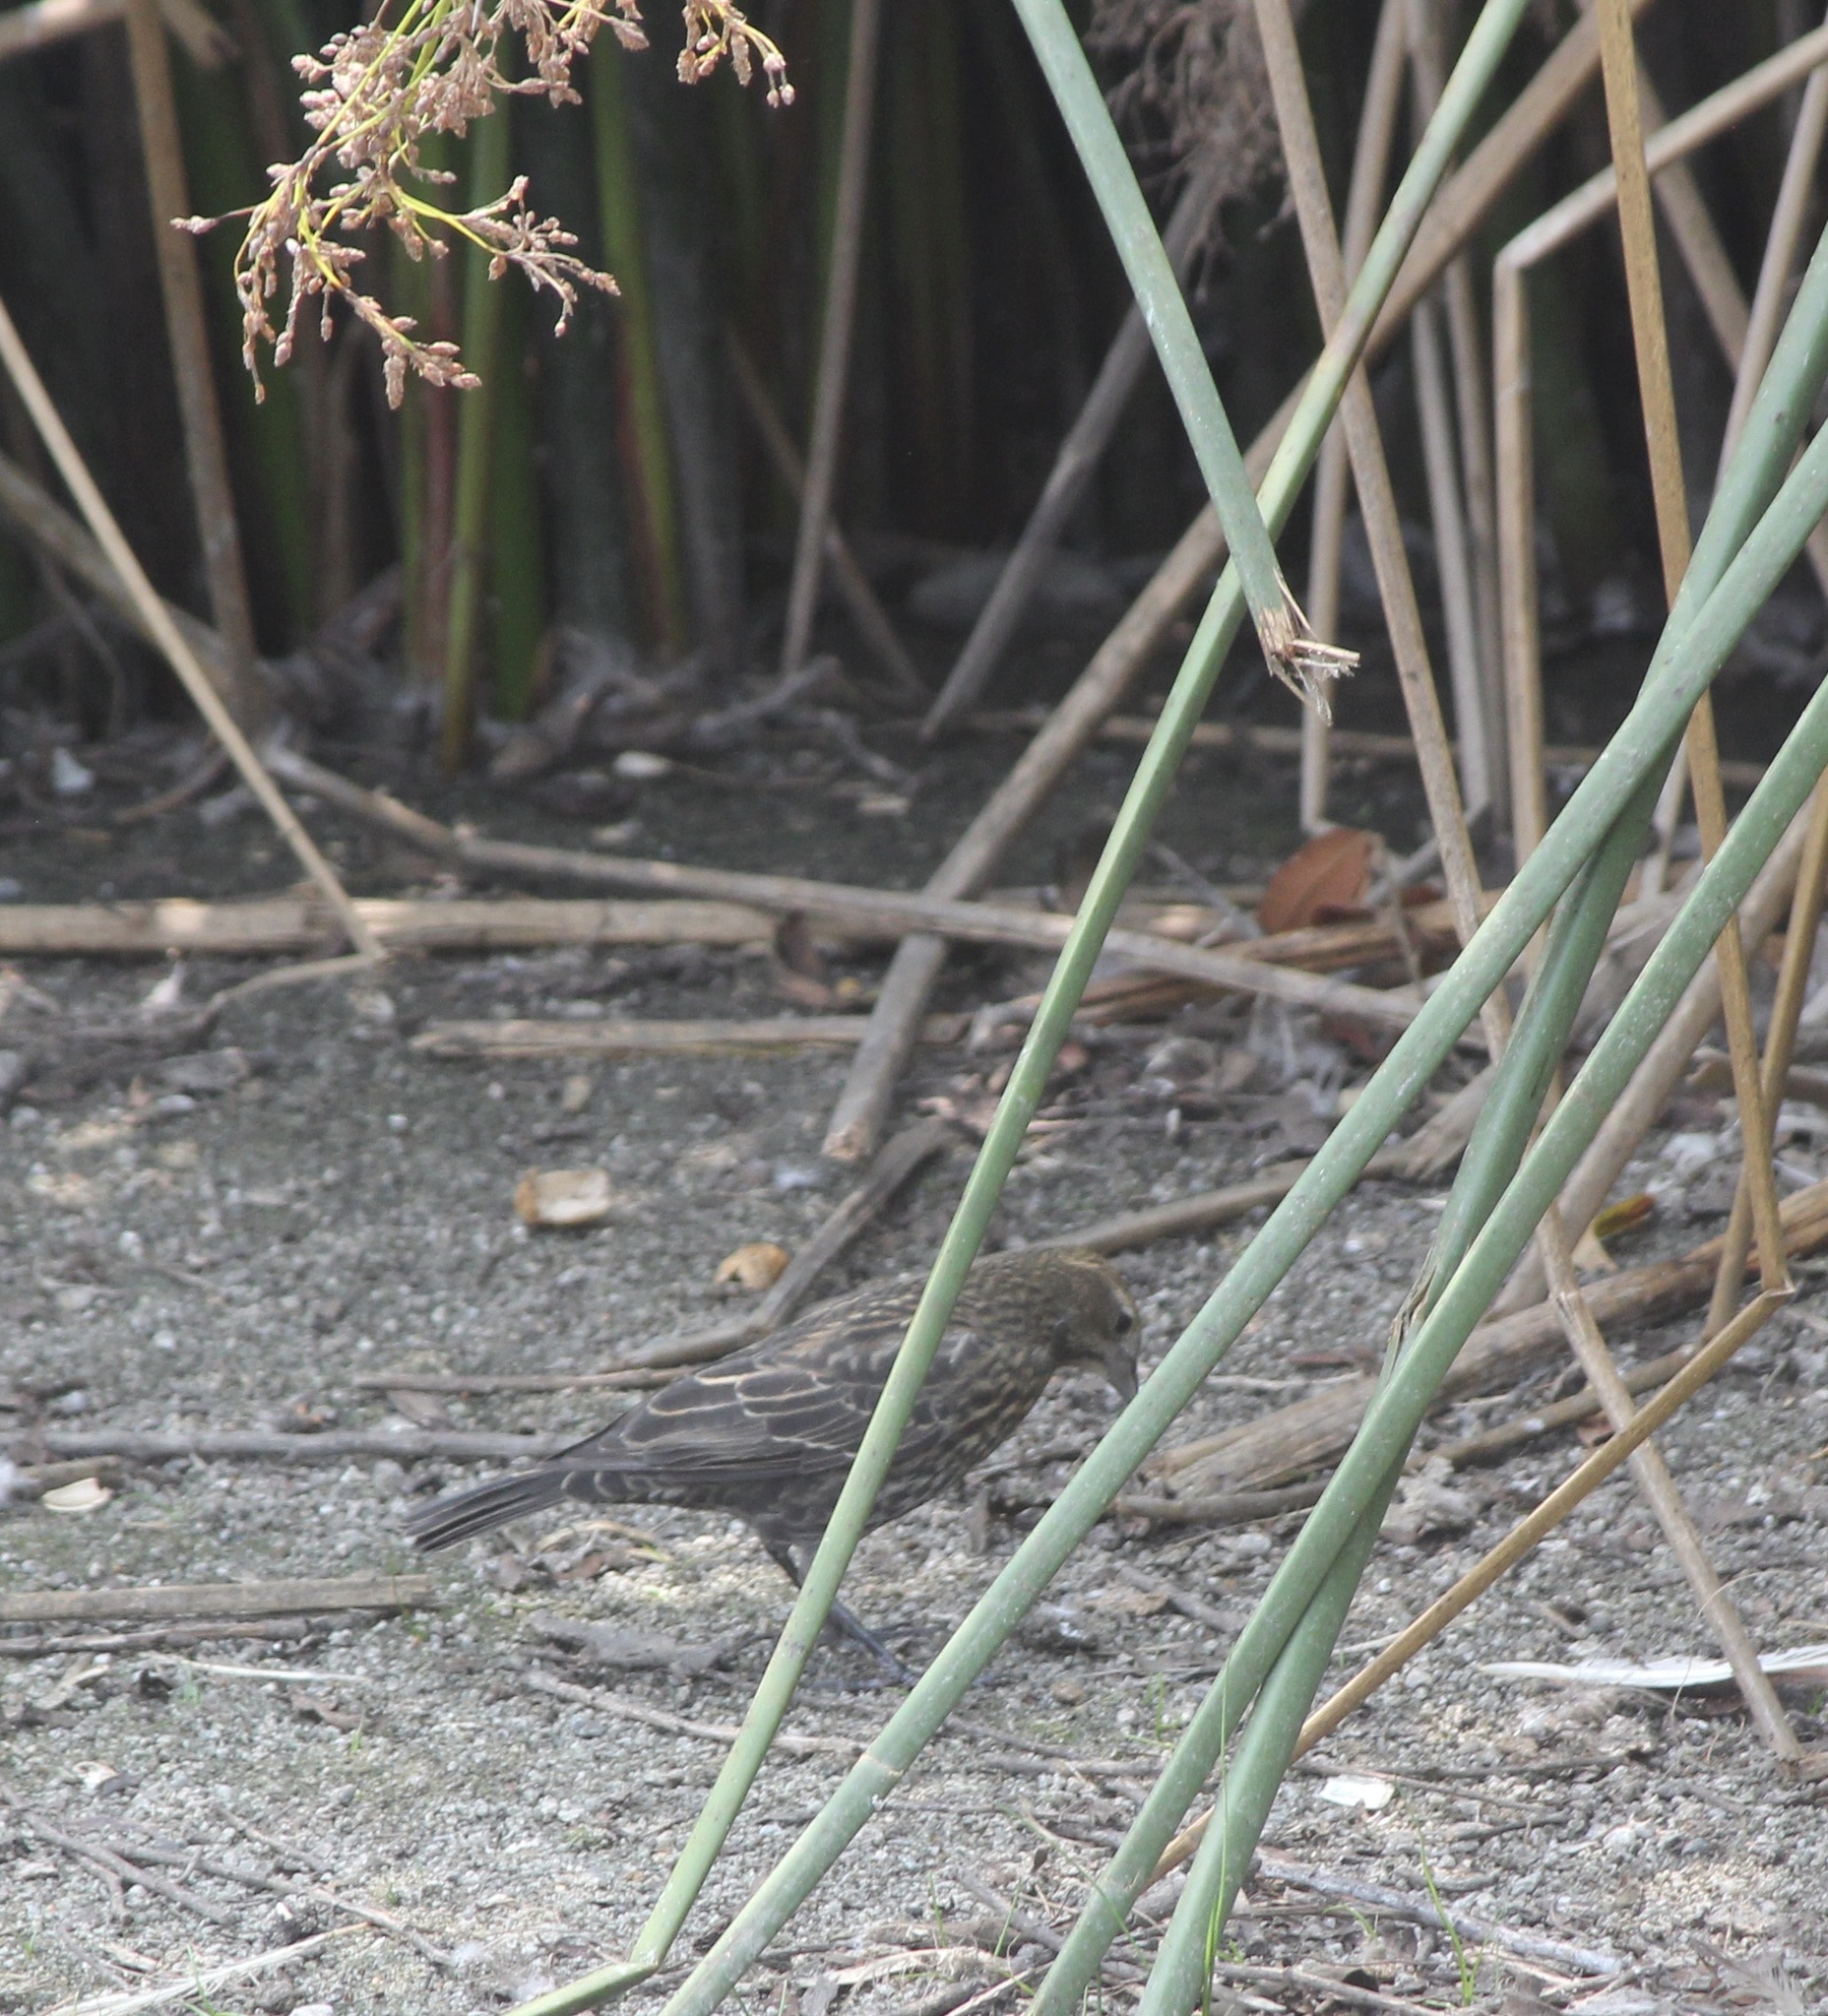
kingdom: Animalia
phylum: Chordata
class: Aves
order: Passeriformes
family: Icteridae
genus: Agelaius
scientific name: Agelaius phoeniceus
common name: Red-winged blackbird
